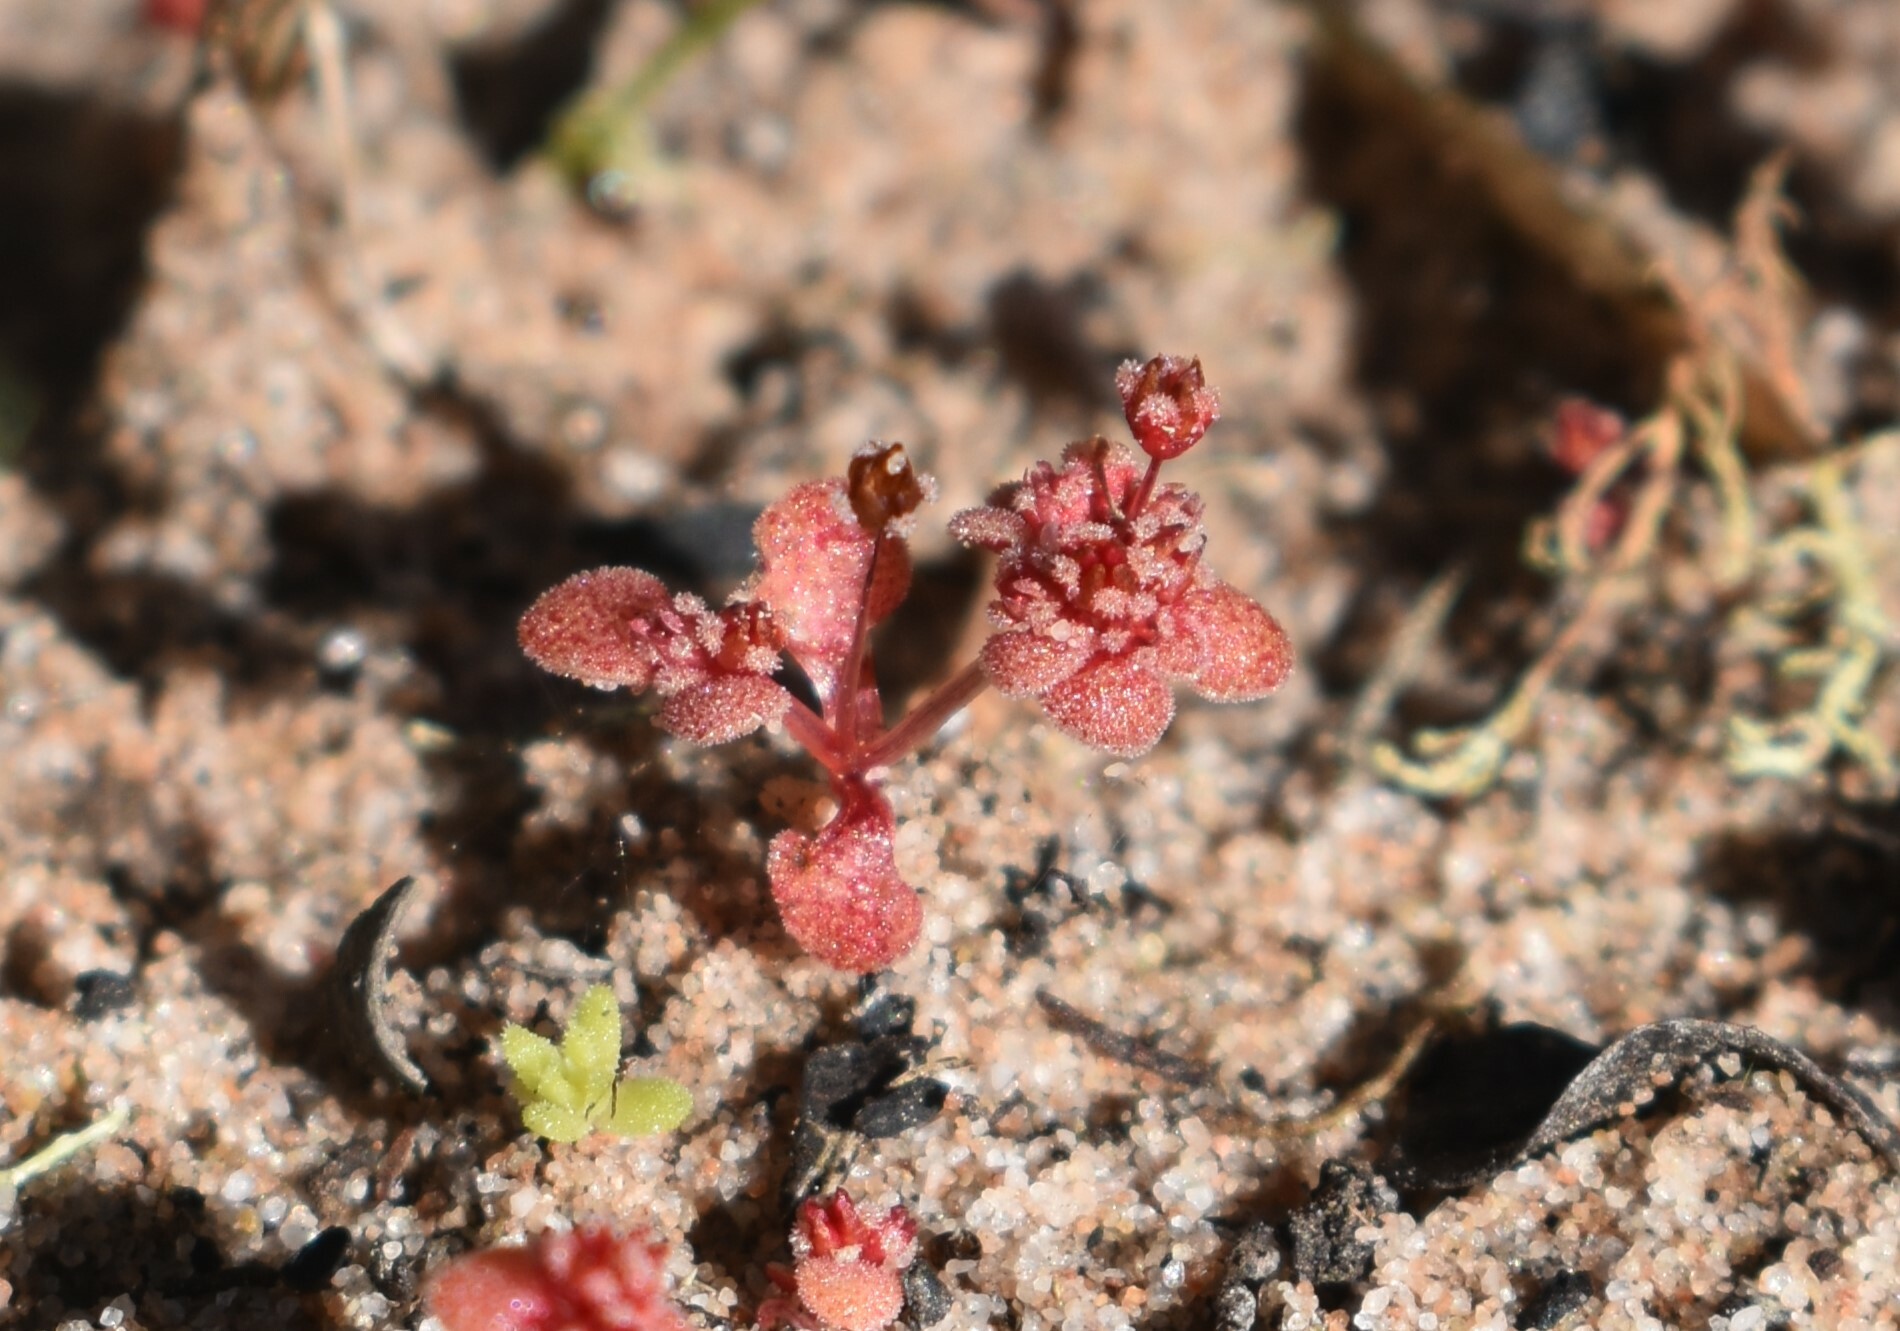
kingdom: Plantae
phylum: Tracheophyta
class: Magnoliopsida
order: Saxifragales
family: Crassulaceae
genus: Crassula
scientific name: Crassula umbellata
